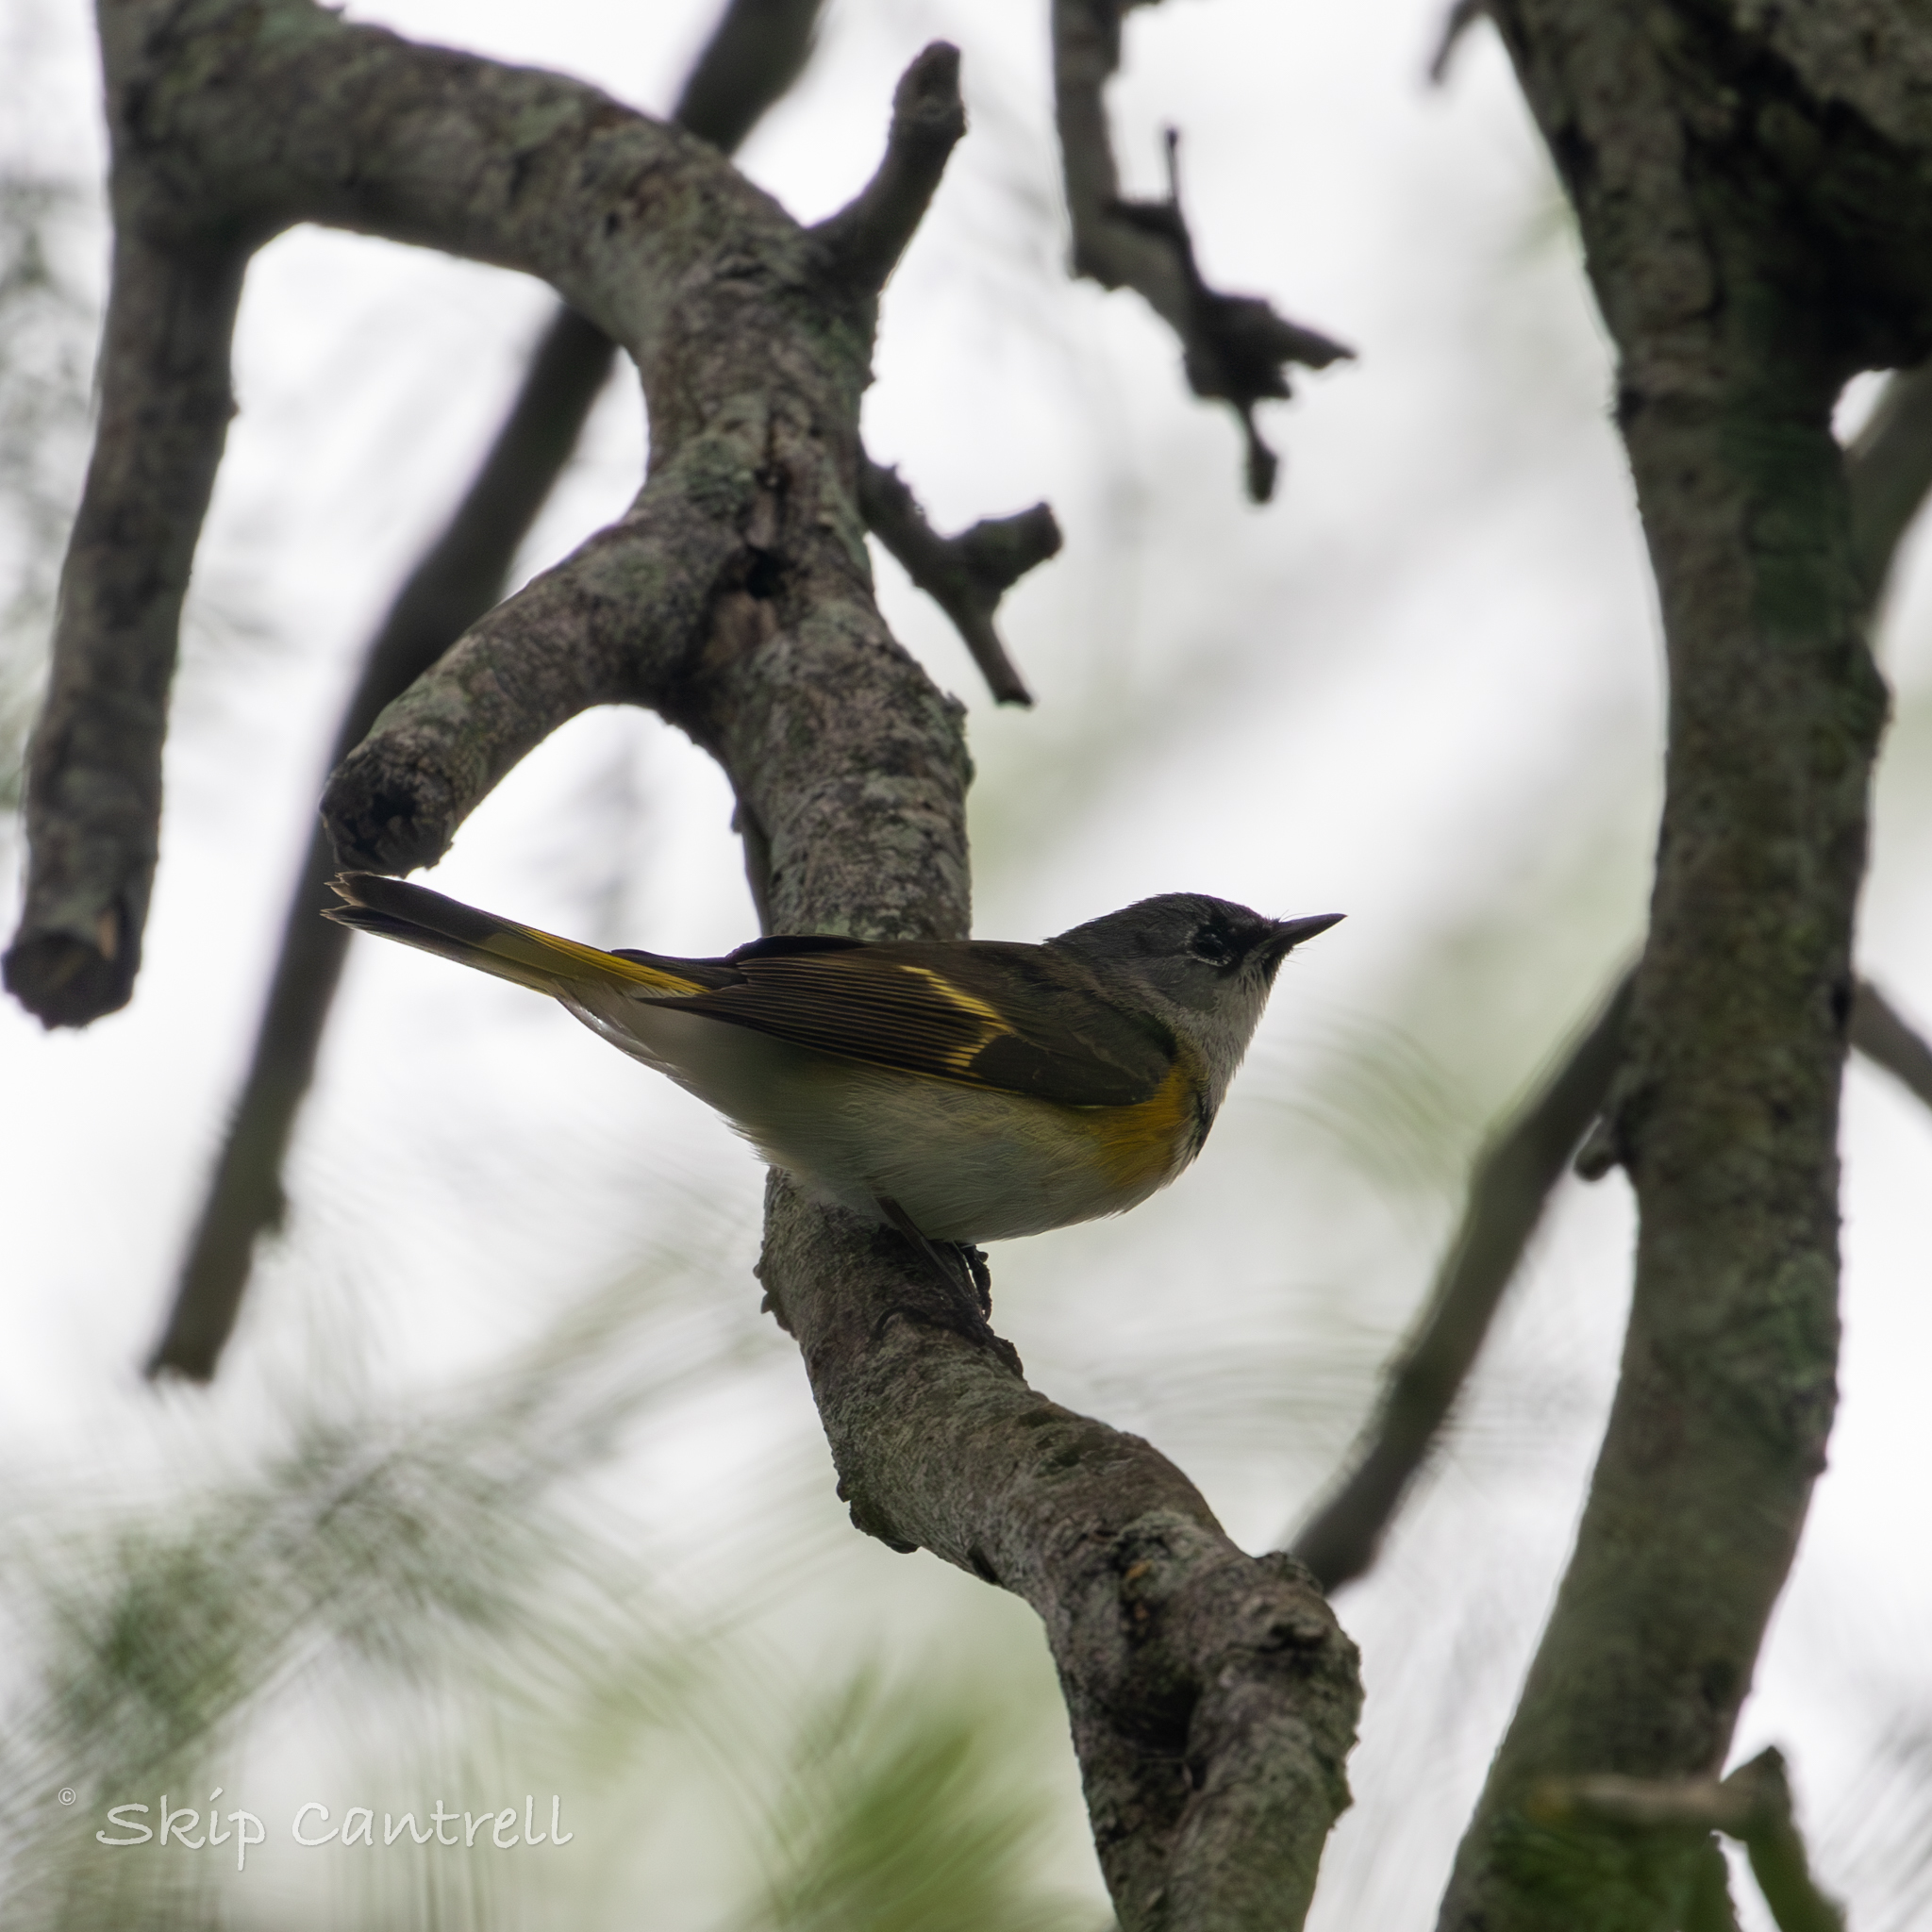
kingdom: Animalia
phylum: Chordata
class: Aves
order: Passeriformes
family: Parulidae
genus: Setophaga
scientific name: Setophaga ruticilla
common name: American redstart
